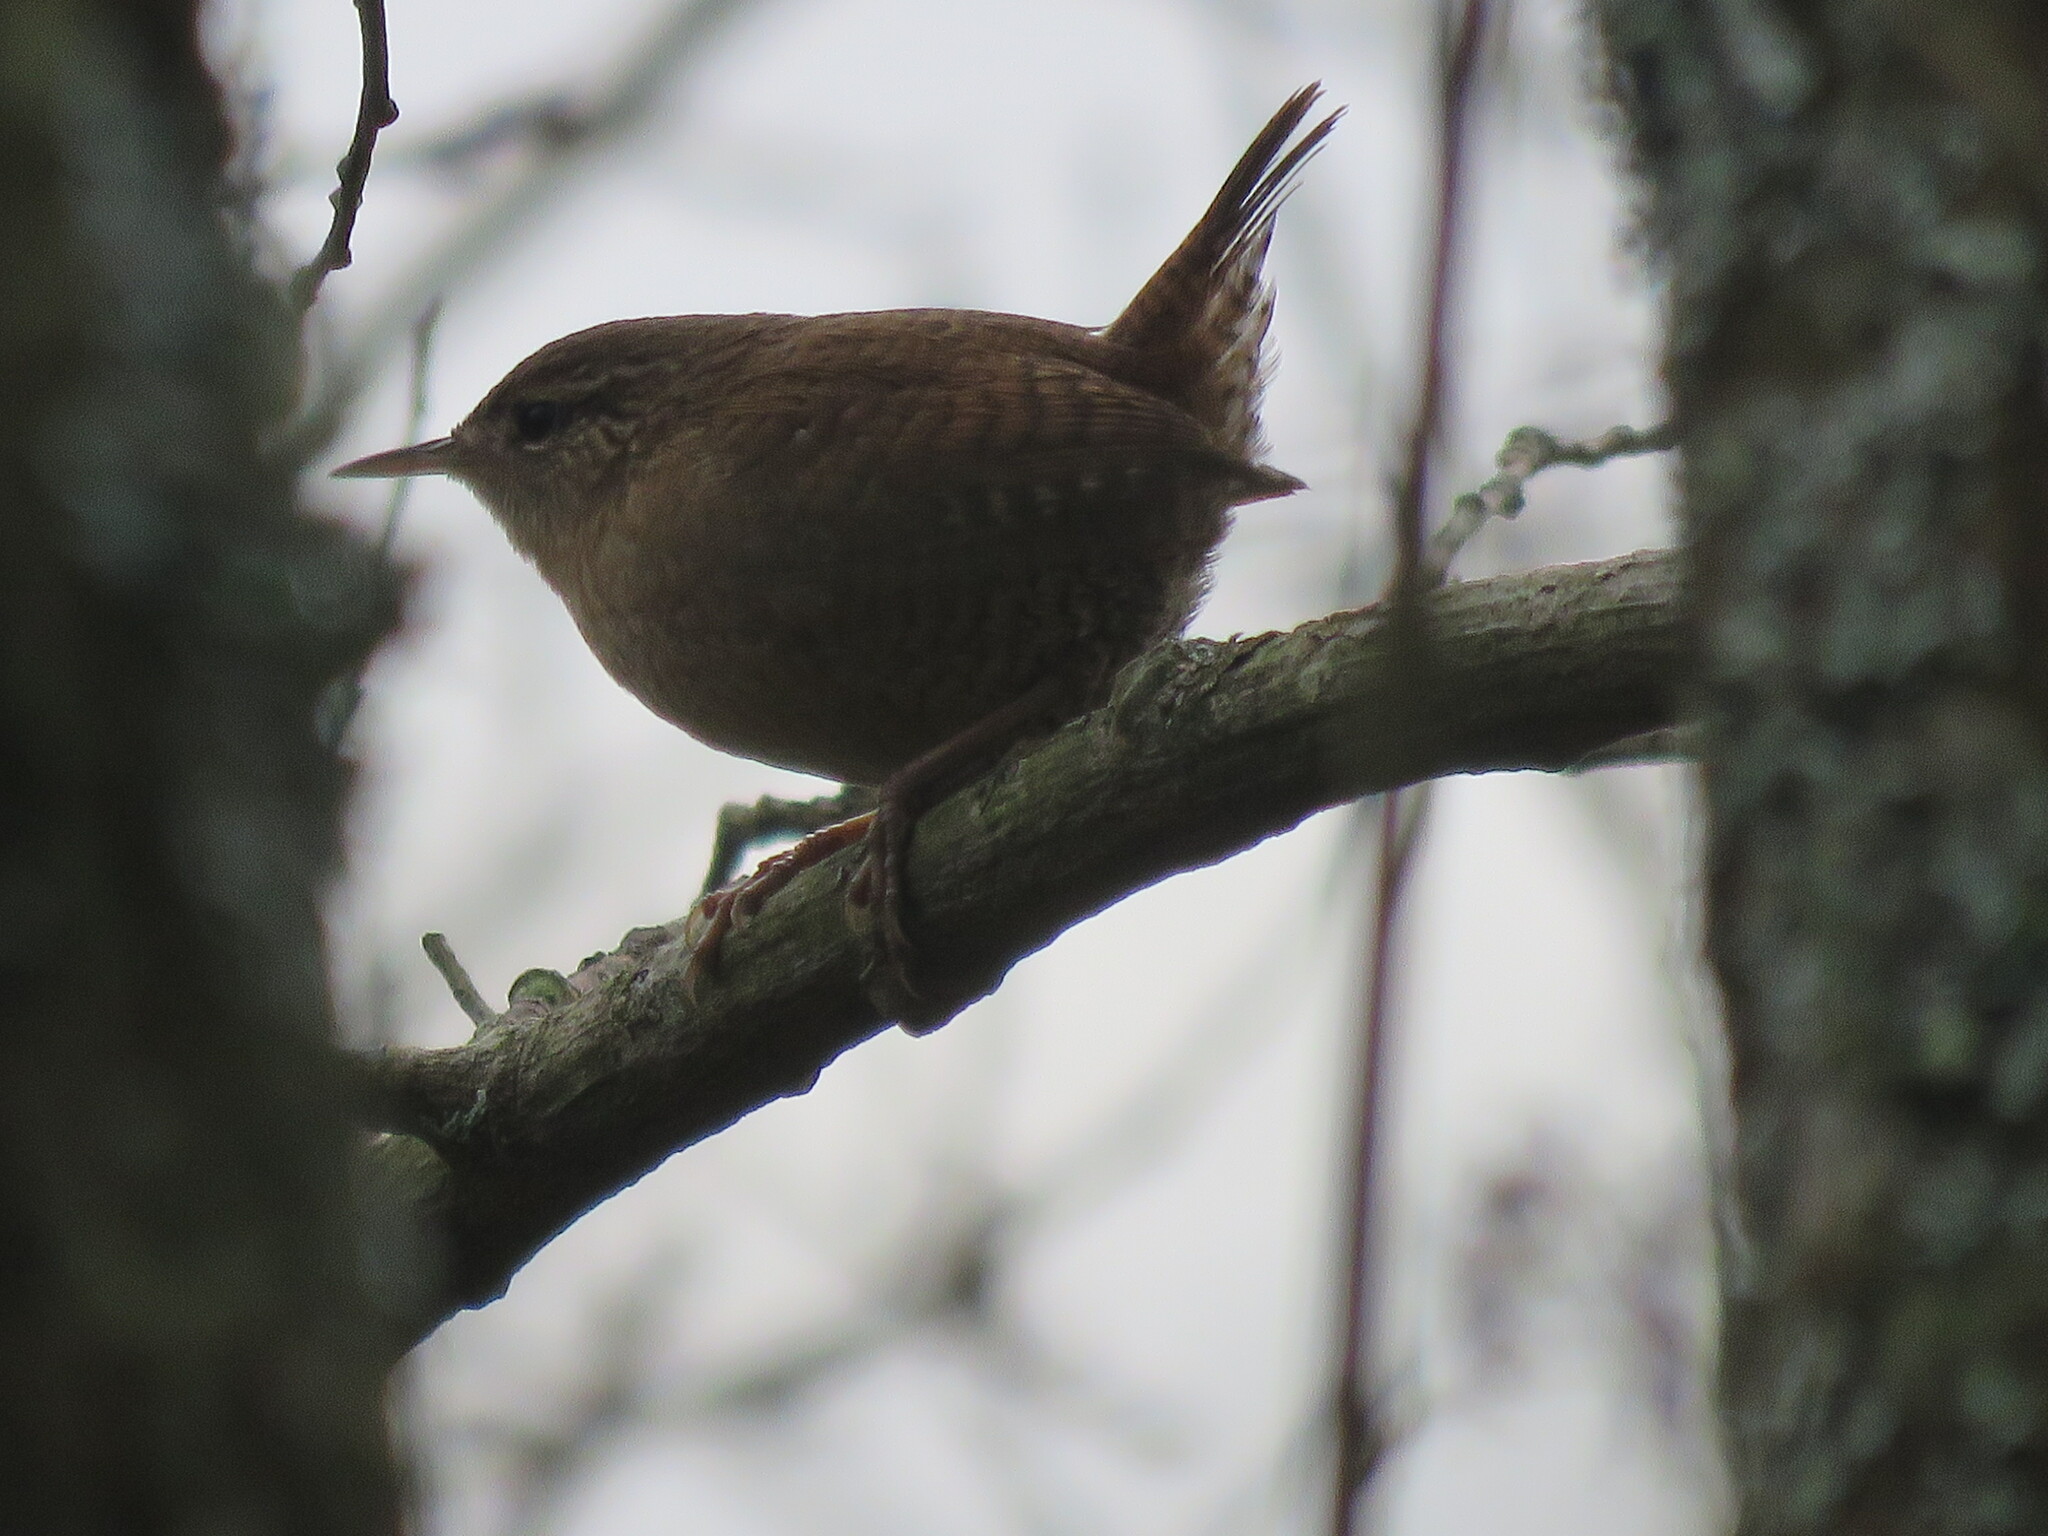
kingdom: Animalia
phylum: Chordata
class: Aves
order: Passeriformes
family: Troglodytidae
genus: Troglodytes
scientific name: Troglodytes troglodytes
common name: Eurasian wren
